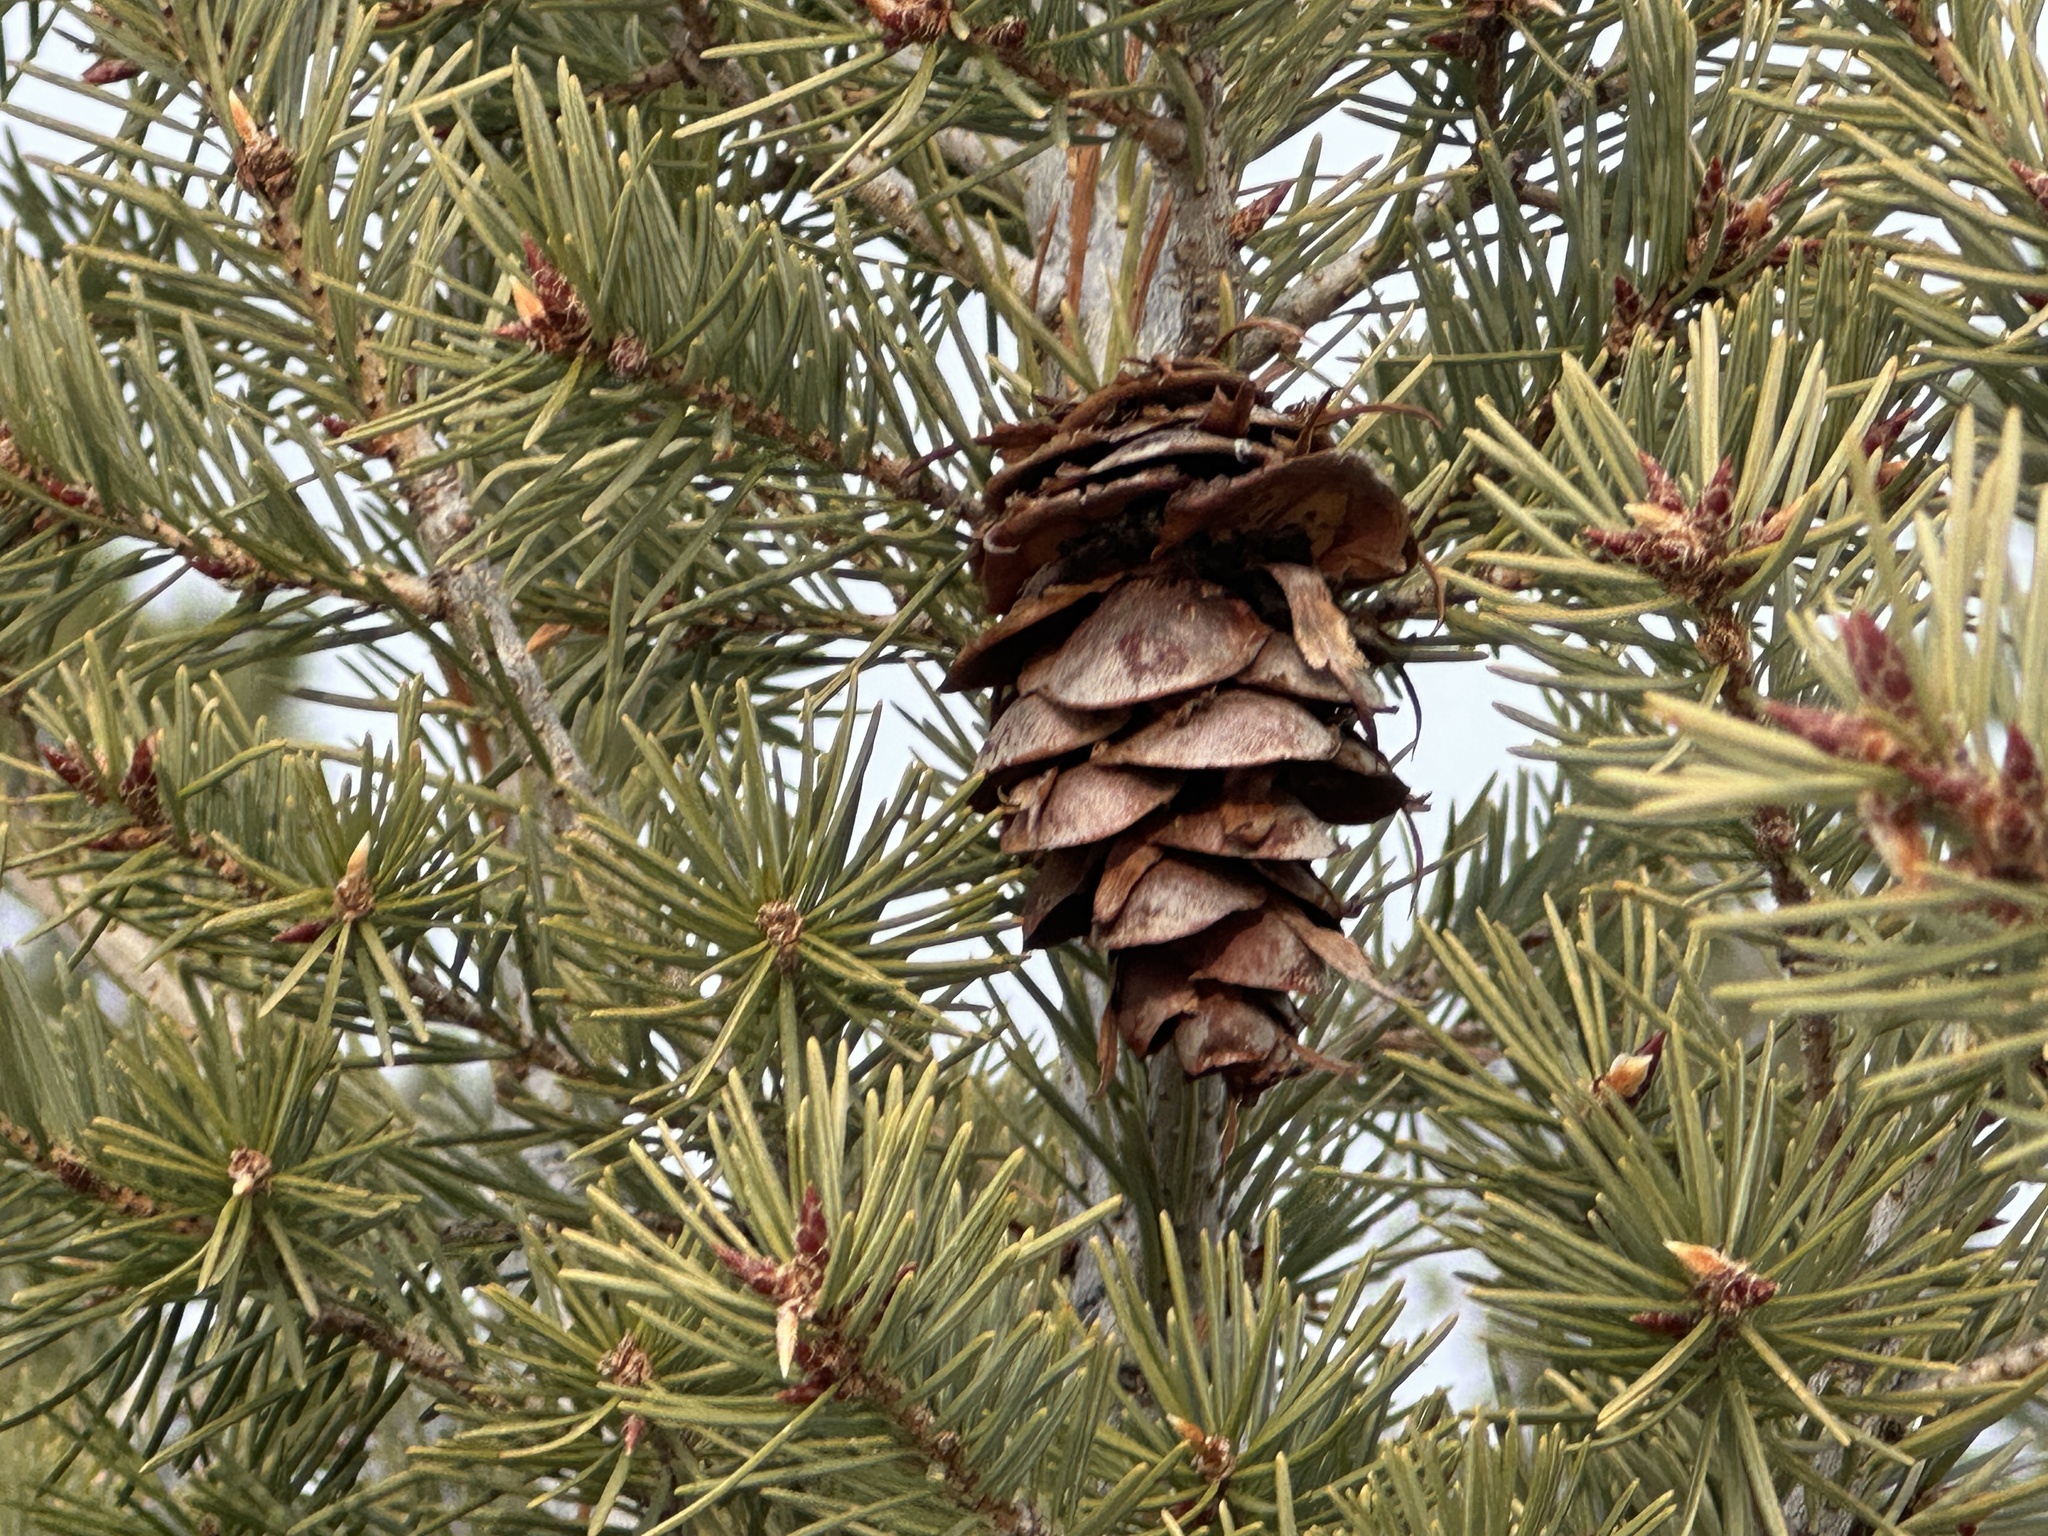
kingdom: Plantae
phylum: Tracheophyta
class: Pinopsida
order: Pinales
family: Pinaceae
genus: Pseudotsuga
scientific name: Pseudotsuga menziesii
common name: Douglas fir
